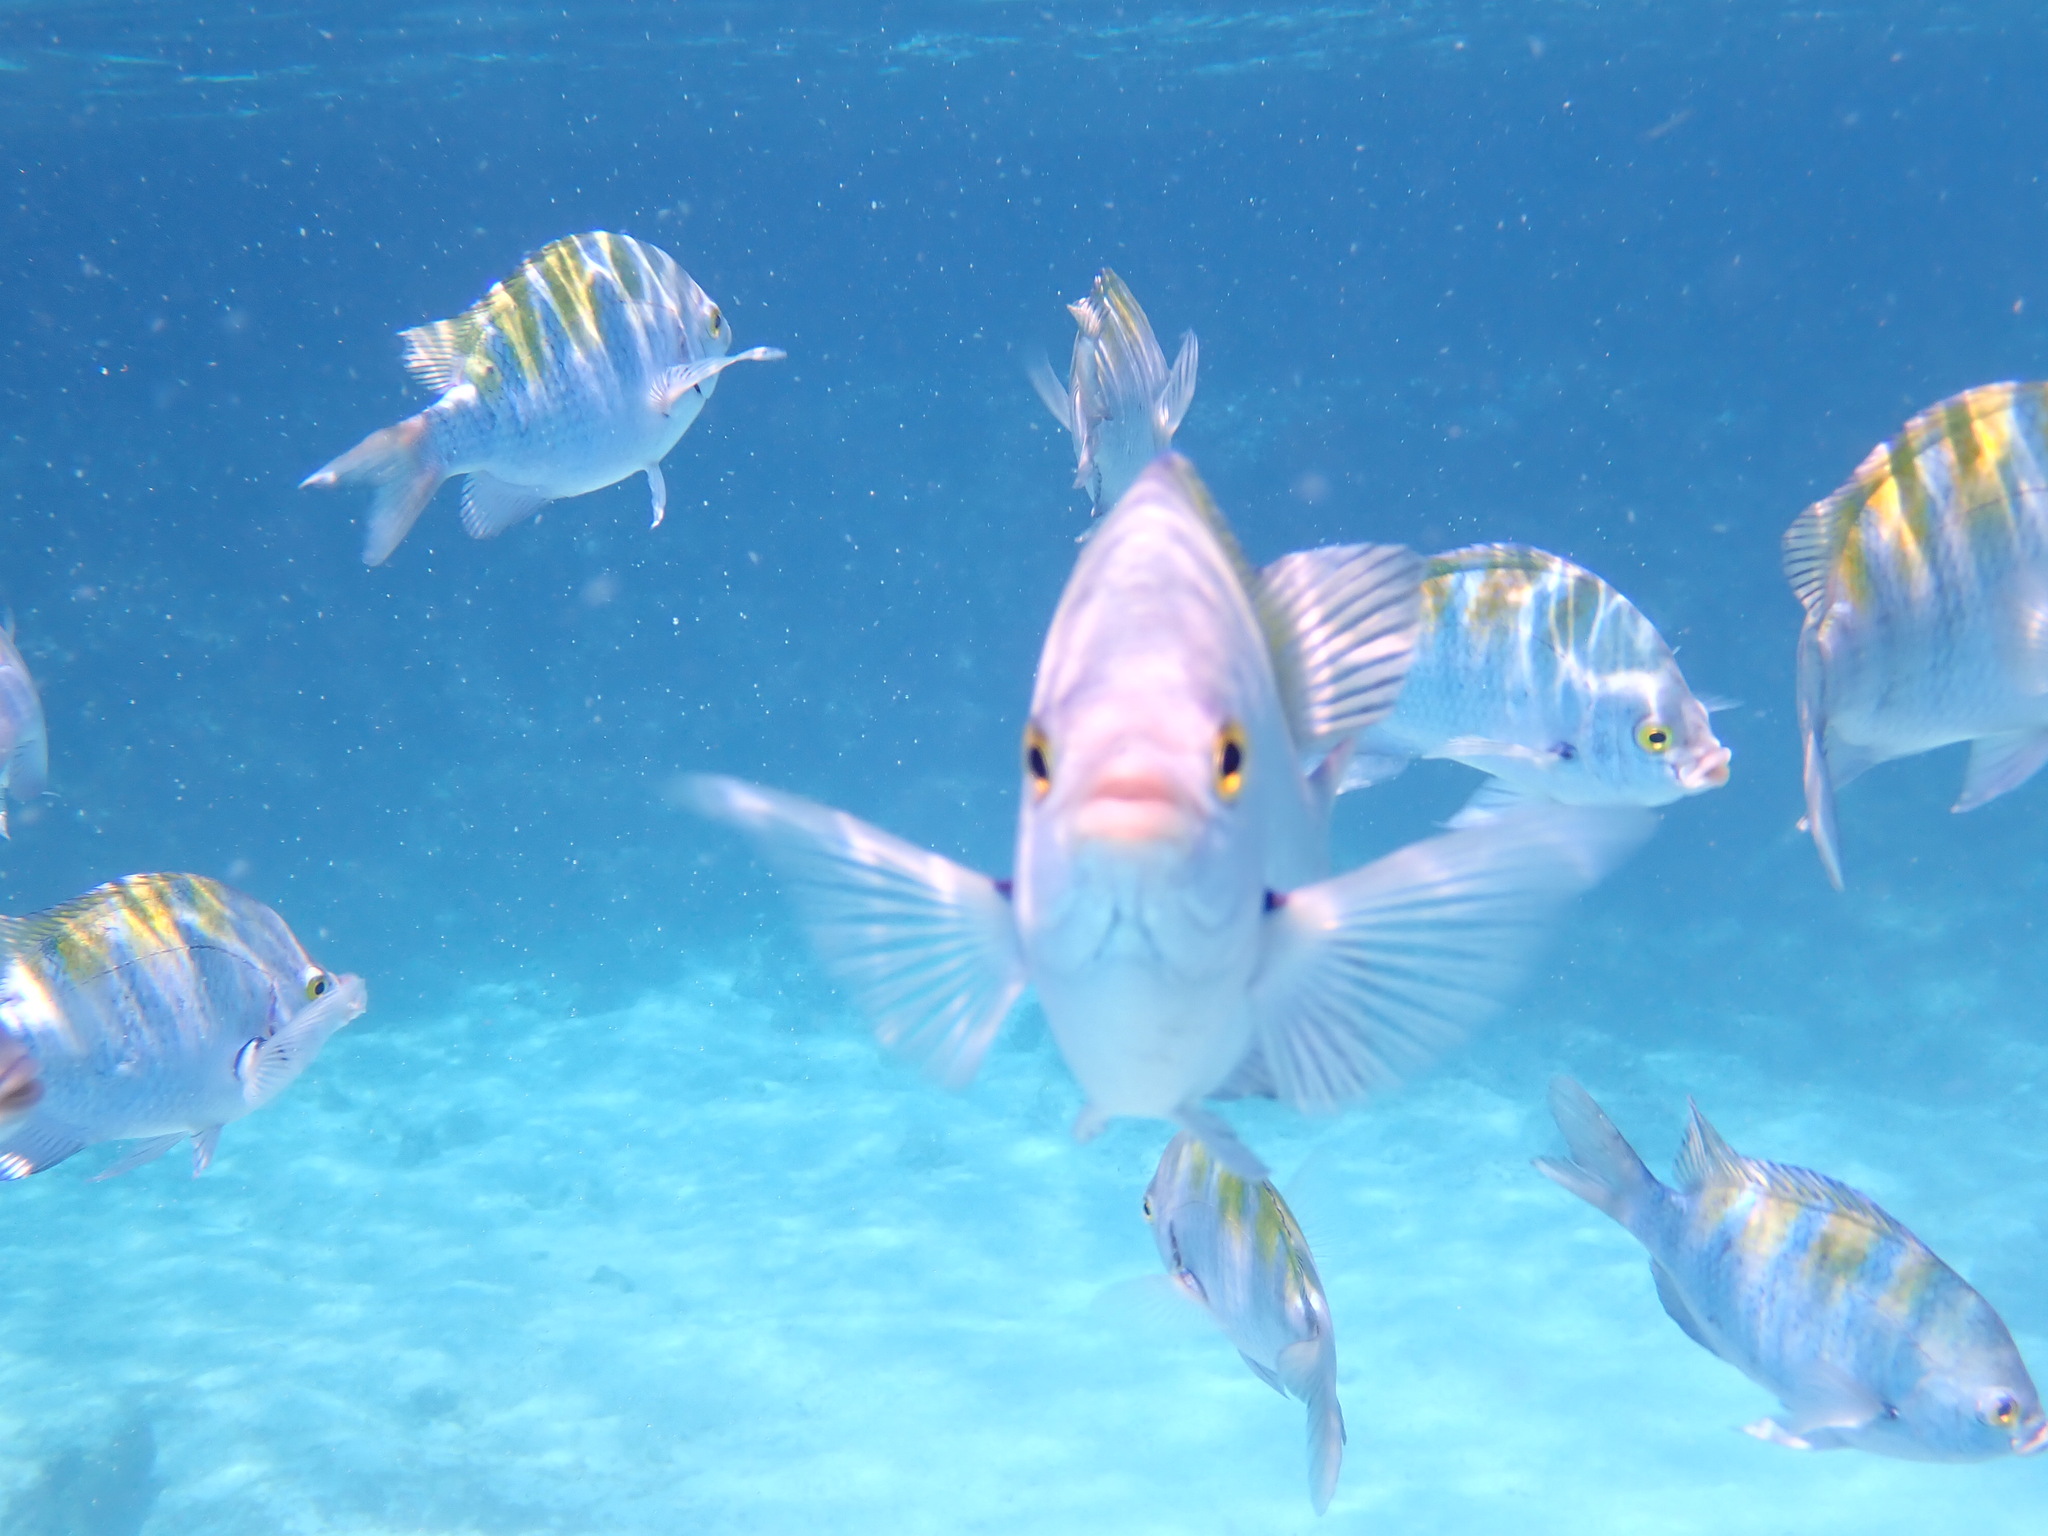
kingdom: Animalia
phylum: Chordata
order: Perciformes
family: Pomacentridae
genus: Abudefduf
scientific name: Abudefduf troschelii
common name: Panamic sergeant major
